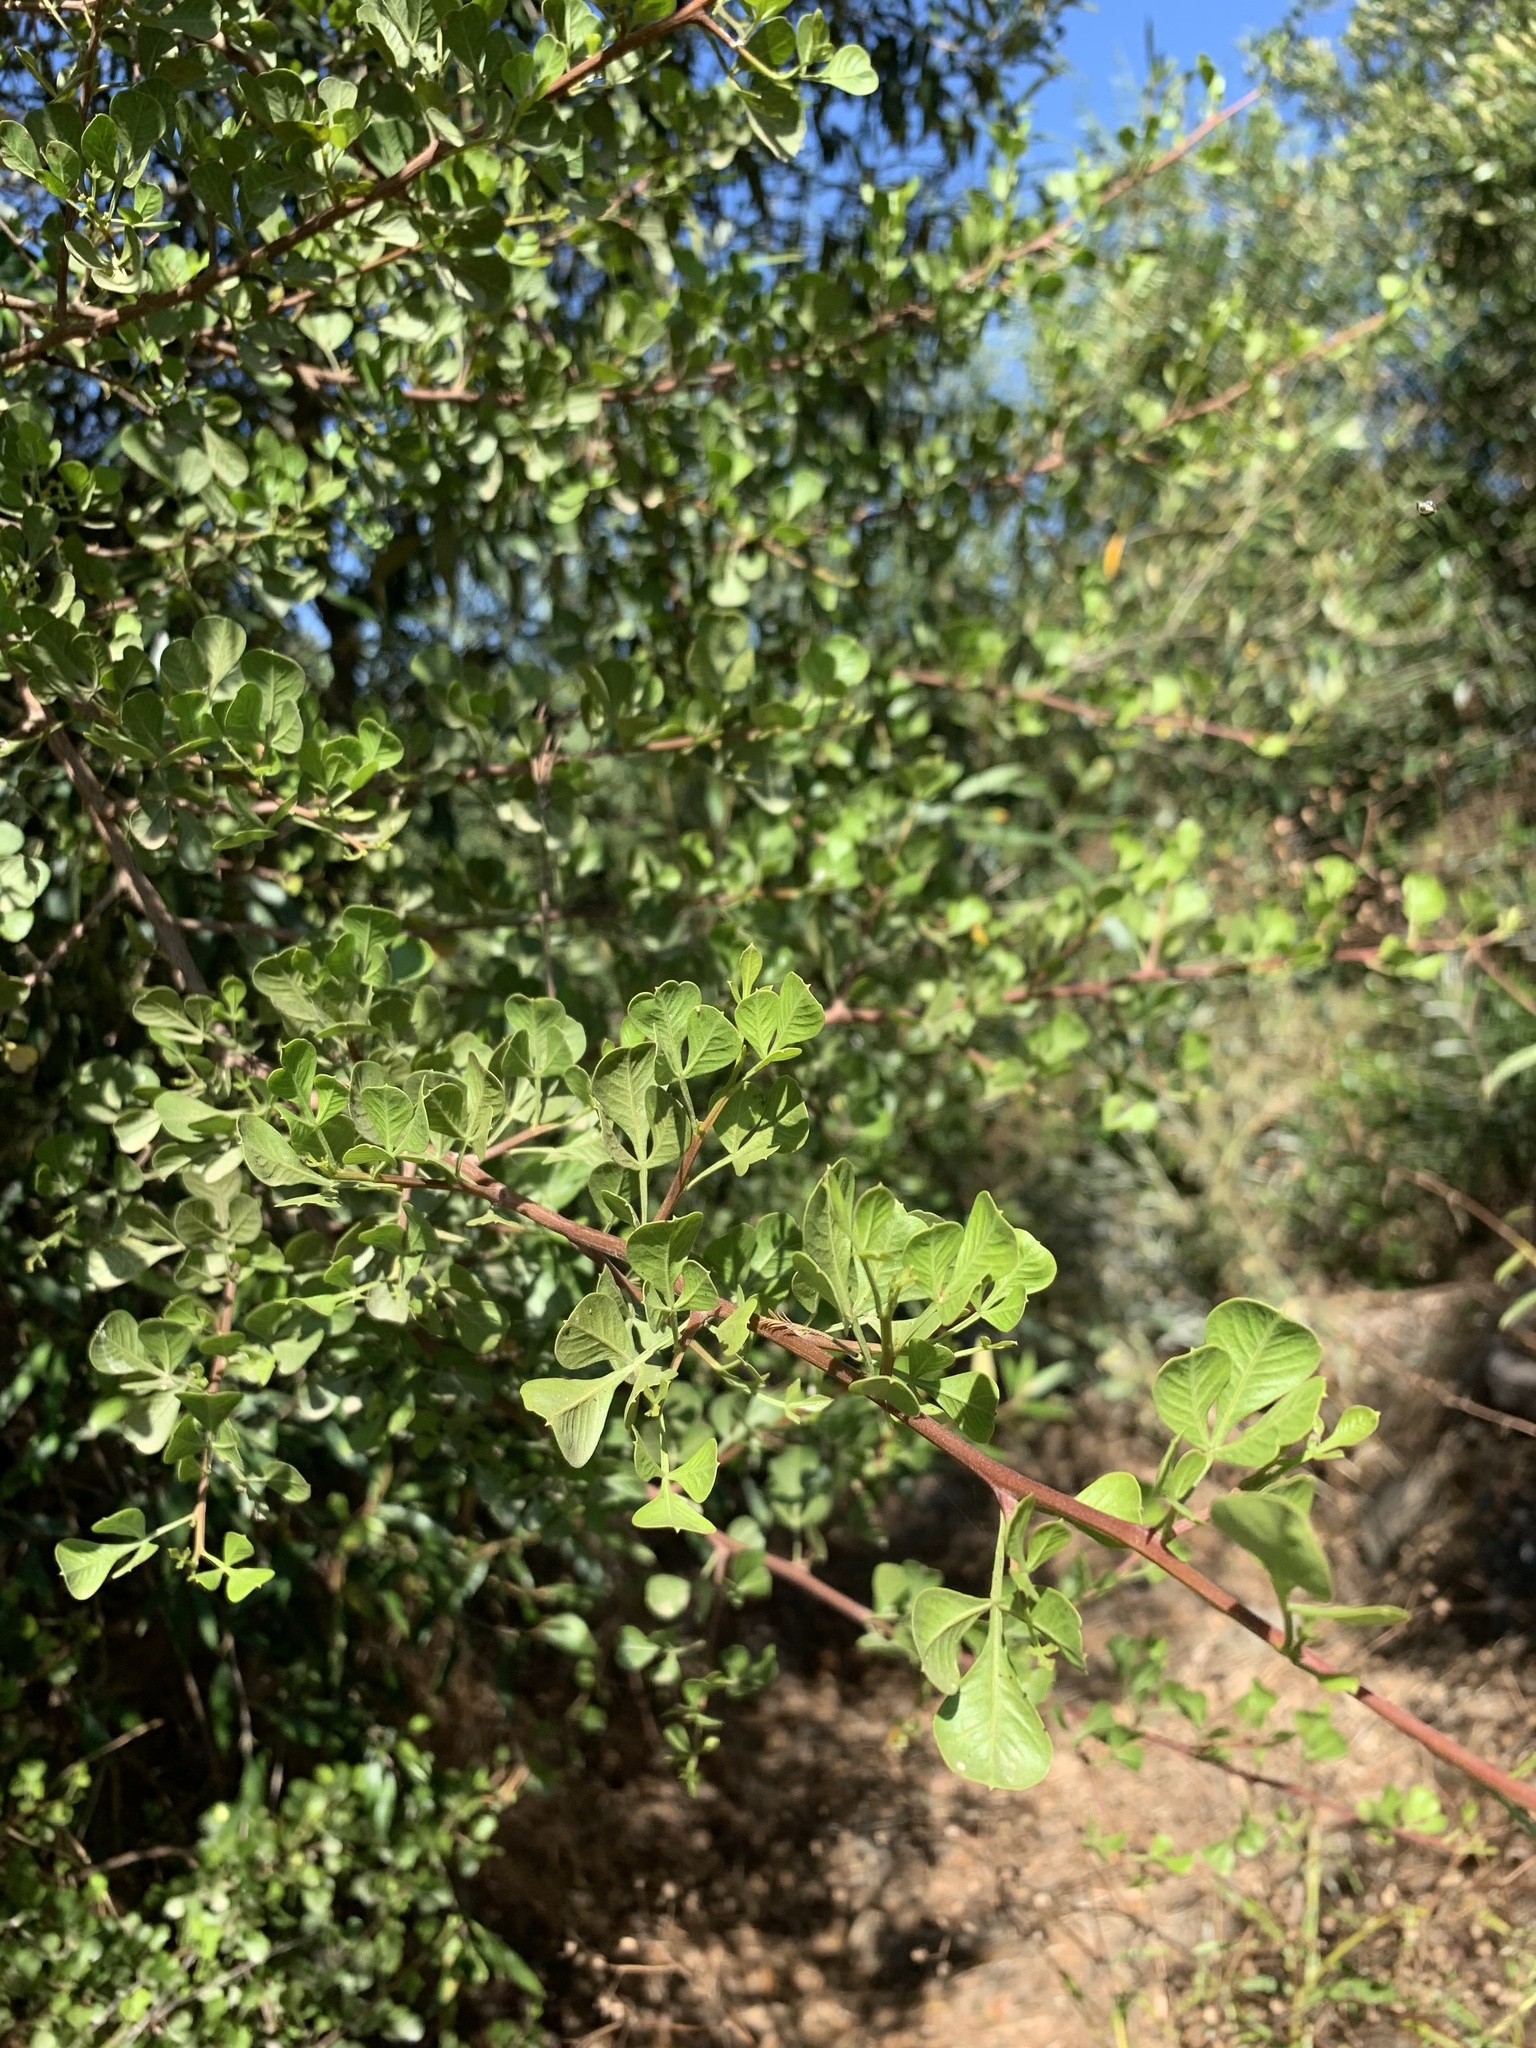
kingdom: Plantae
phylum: Tracheophyta
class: Magnoliopsida
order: Sapindales
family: Anacardiaceae
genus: Searsia
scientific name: Searsia glauca
